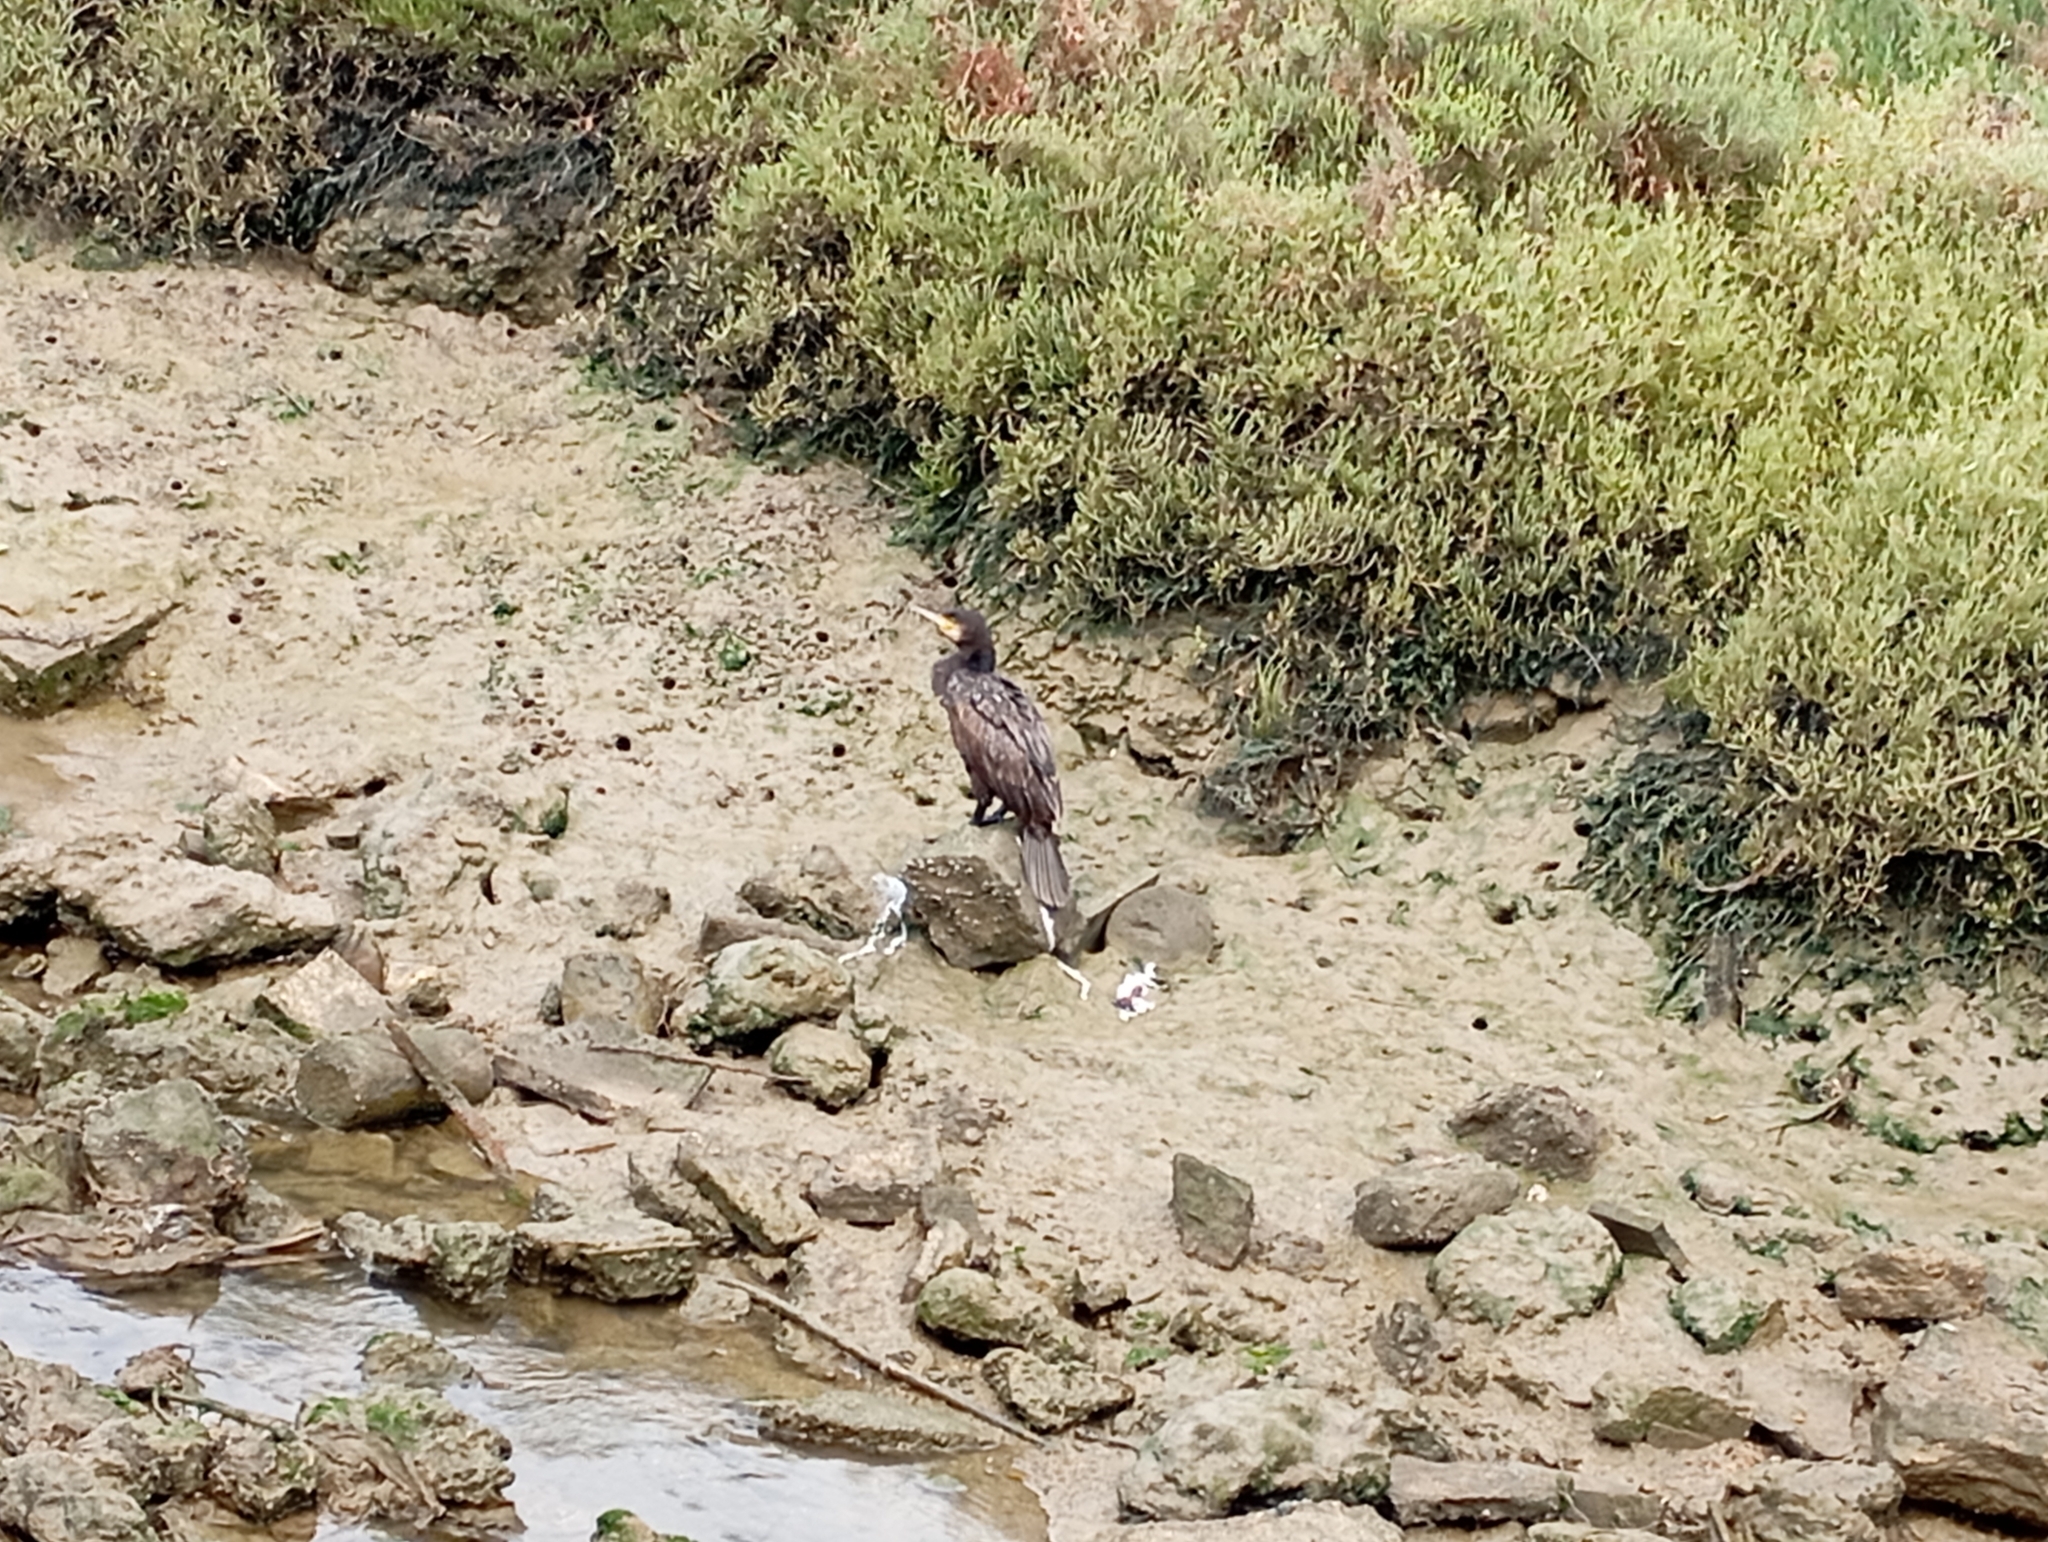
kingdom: Animalia
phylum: Chordata
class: Aves
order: Suliformes
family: Phalacrocoracidae
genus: Phalacrocorax
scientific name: Phalacrocorax carbo
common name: Great cormorant
